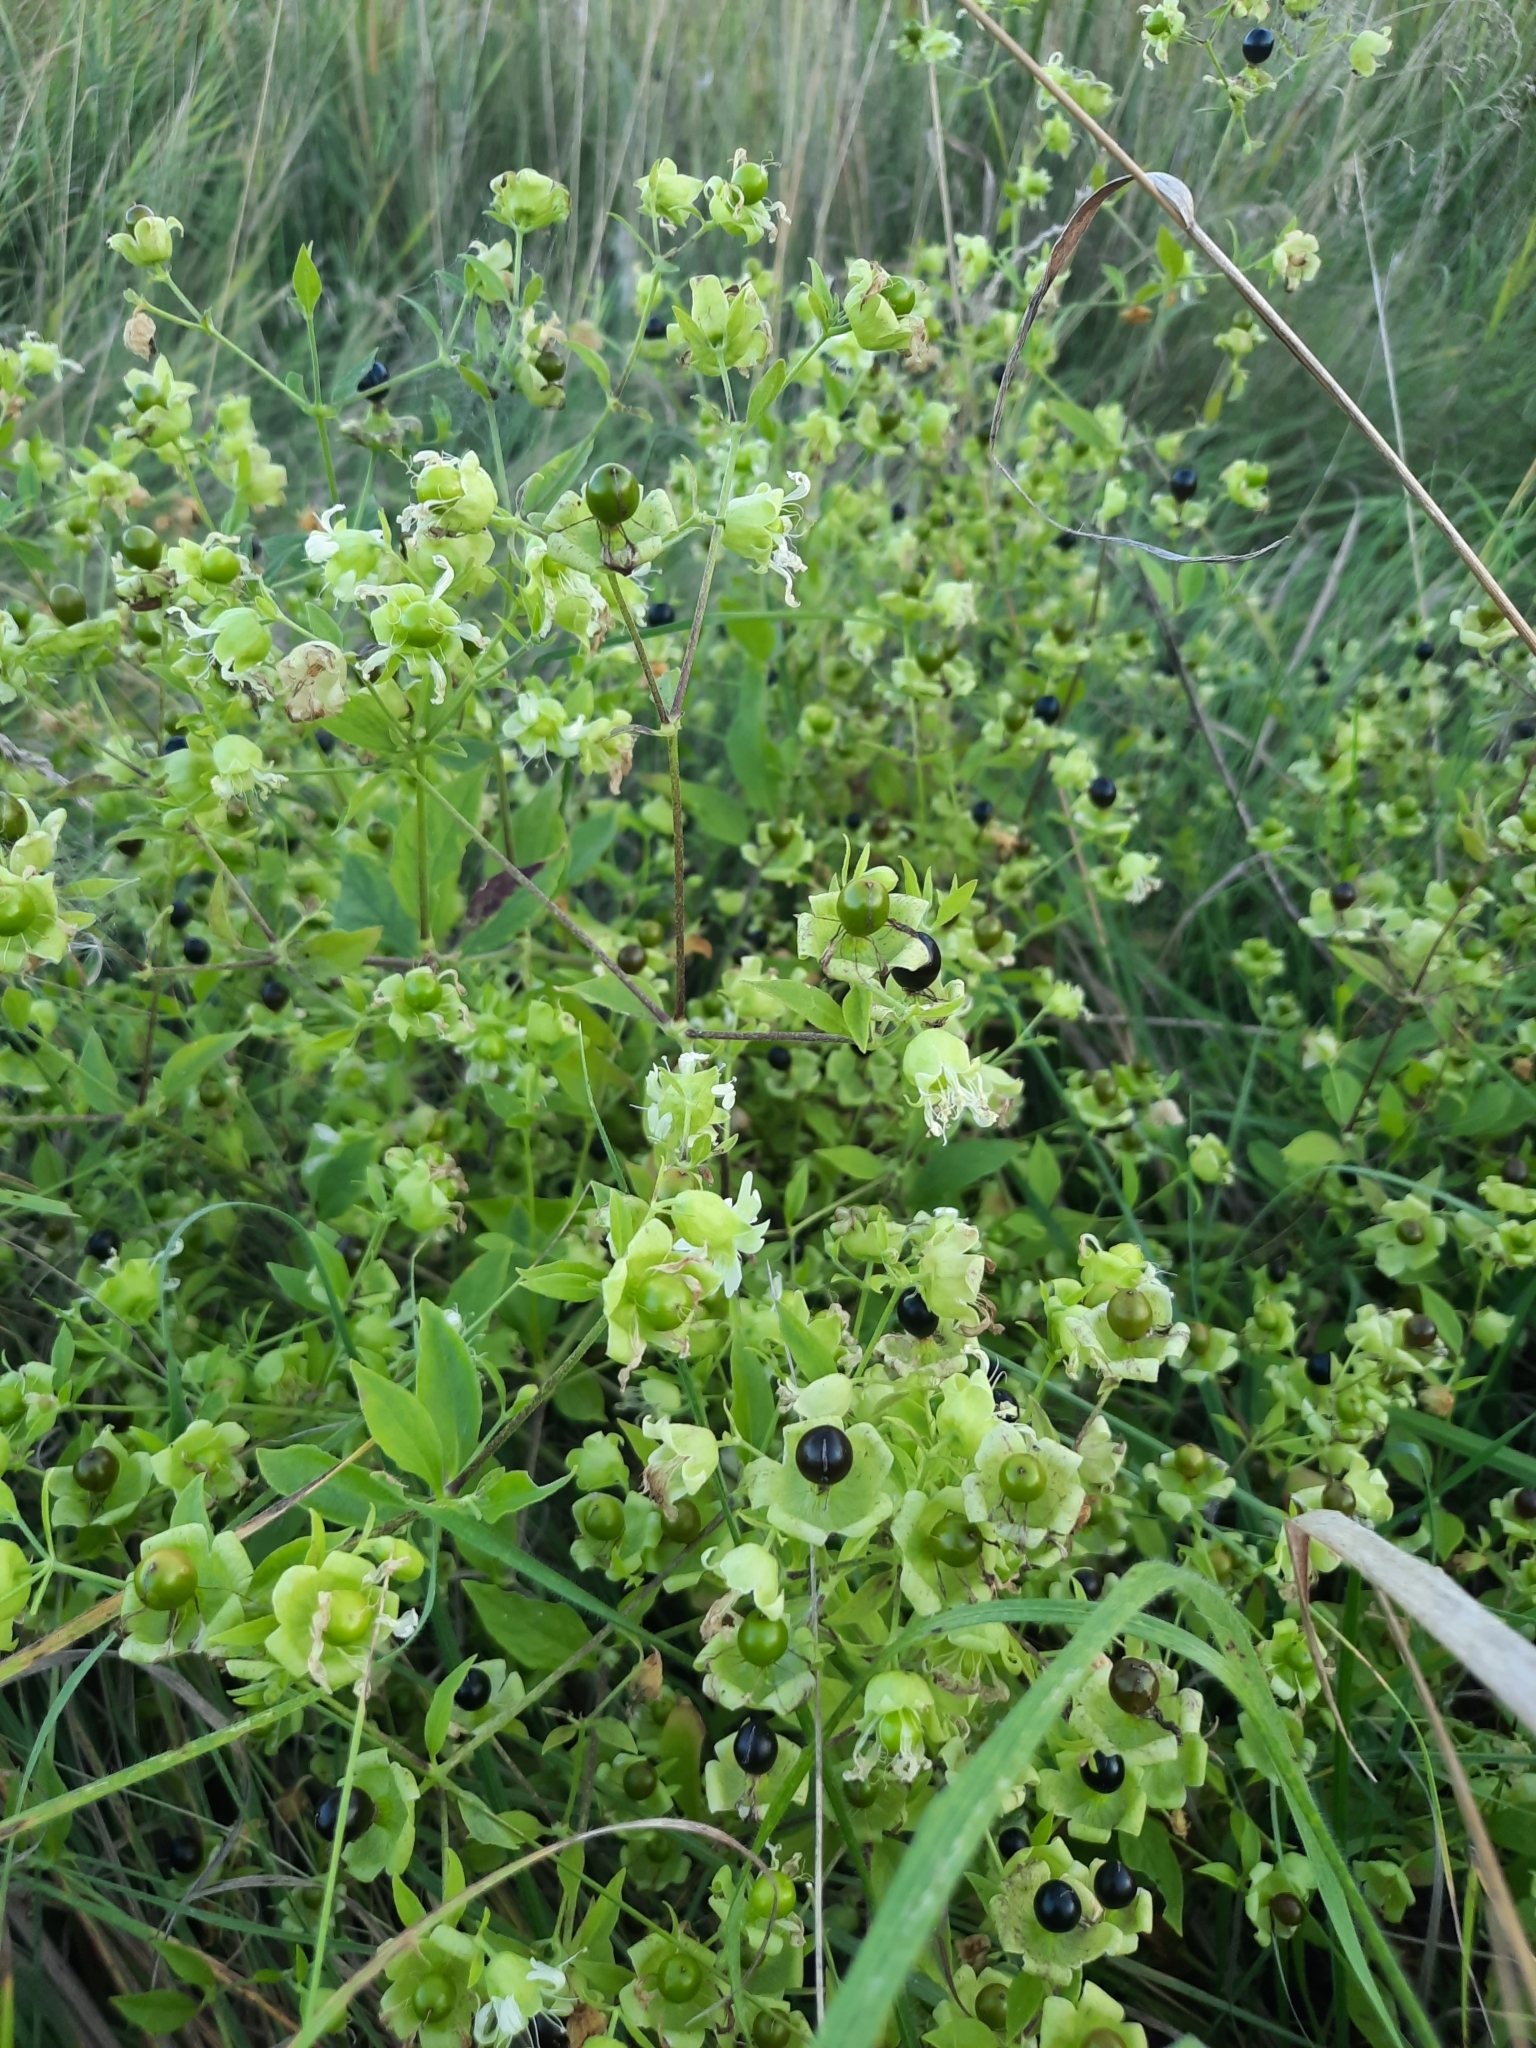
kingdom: Plantae
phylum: Tracheophyta
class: Magnoliopsida
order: Caryophyllales
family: Caryophyllaceae
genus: Silene
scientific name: Silene baccifera
